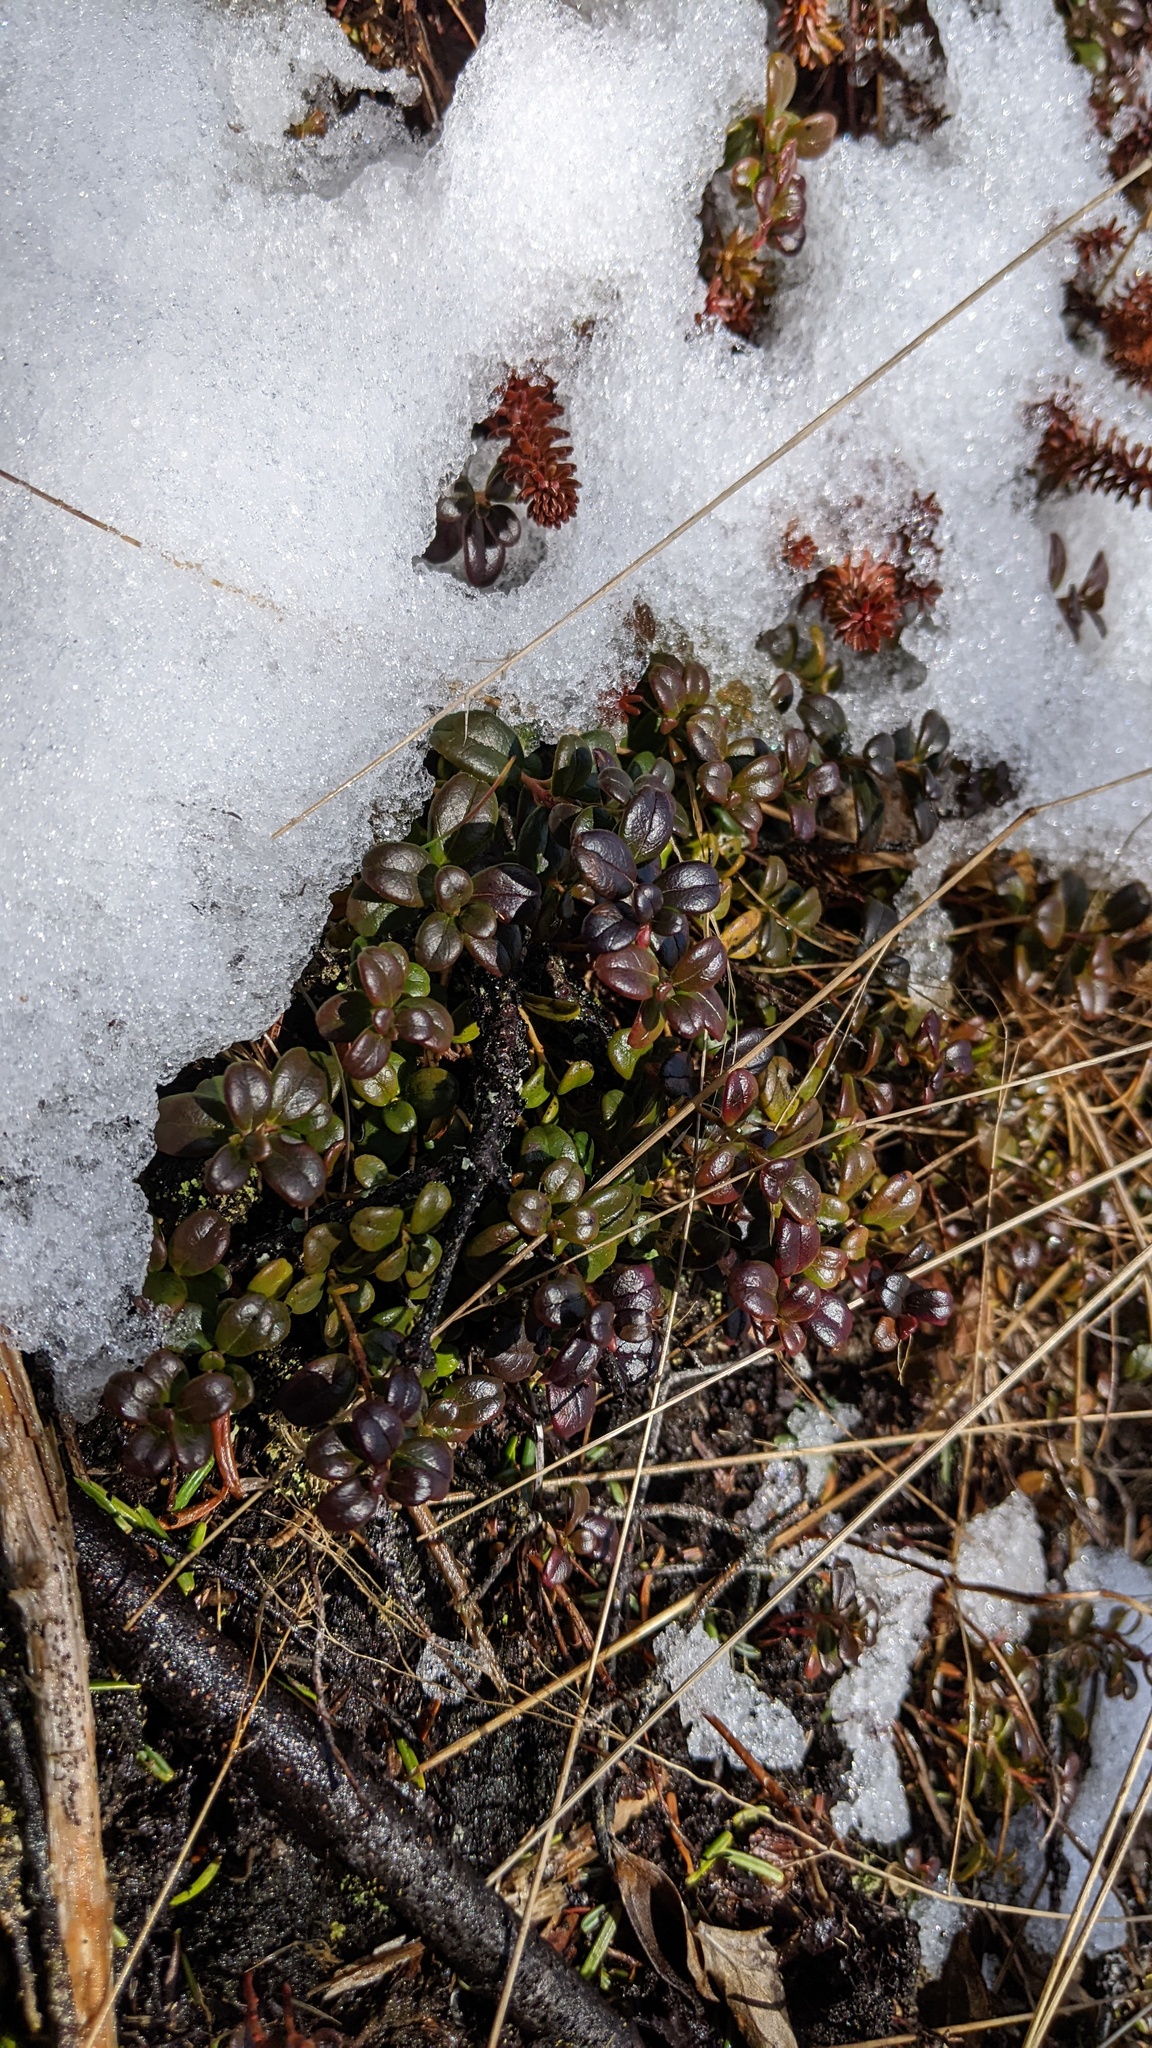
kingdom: Plantae
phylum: Tracheophyta
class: Magnoliopsida
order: Ericales
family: Ericaceae
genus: Vaccinium
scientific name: Vaccinium vitis-idaea
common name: Cowberry
